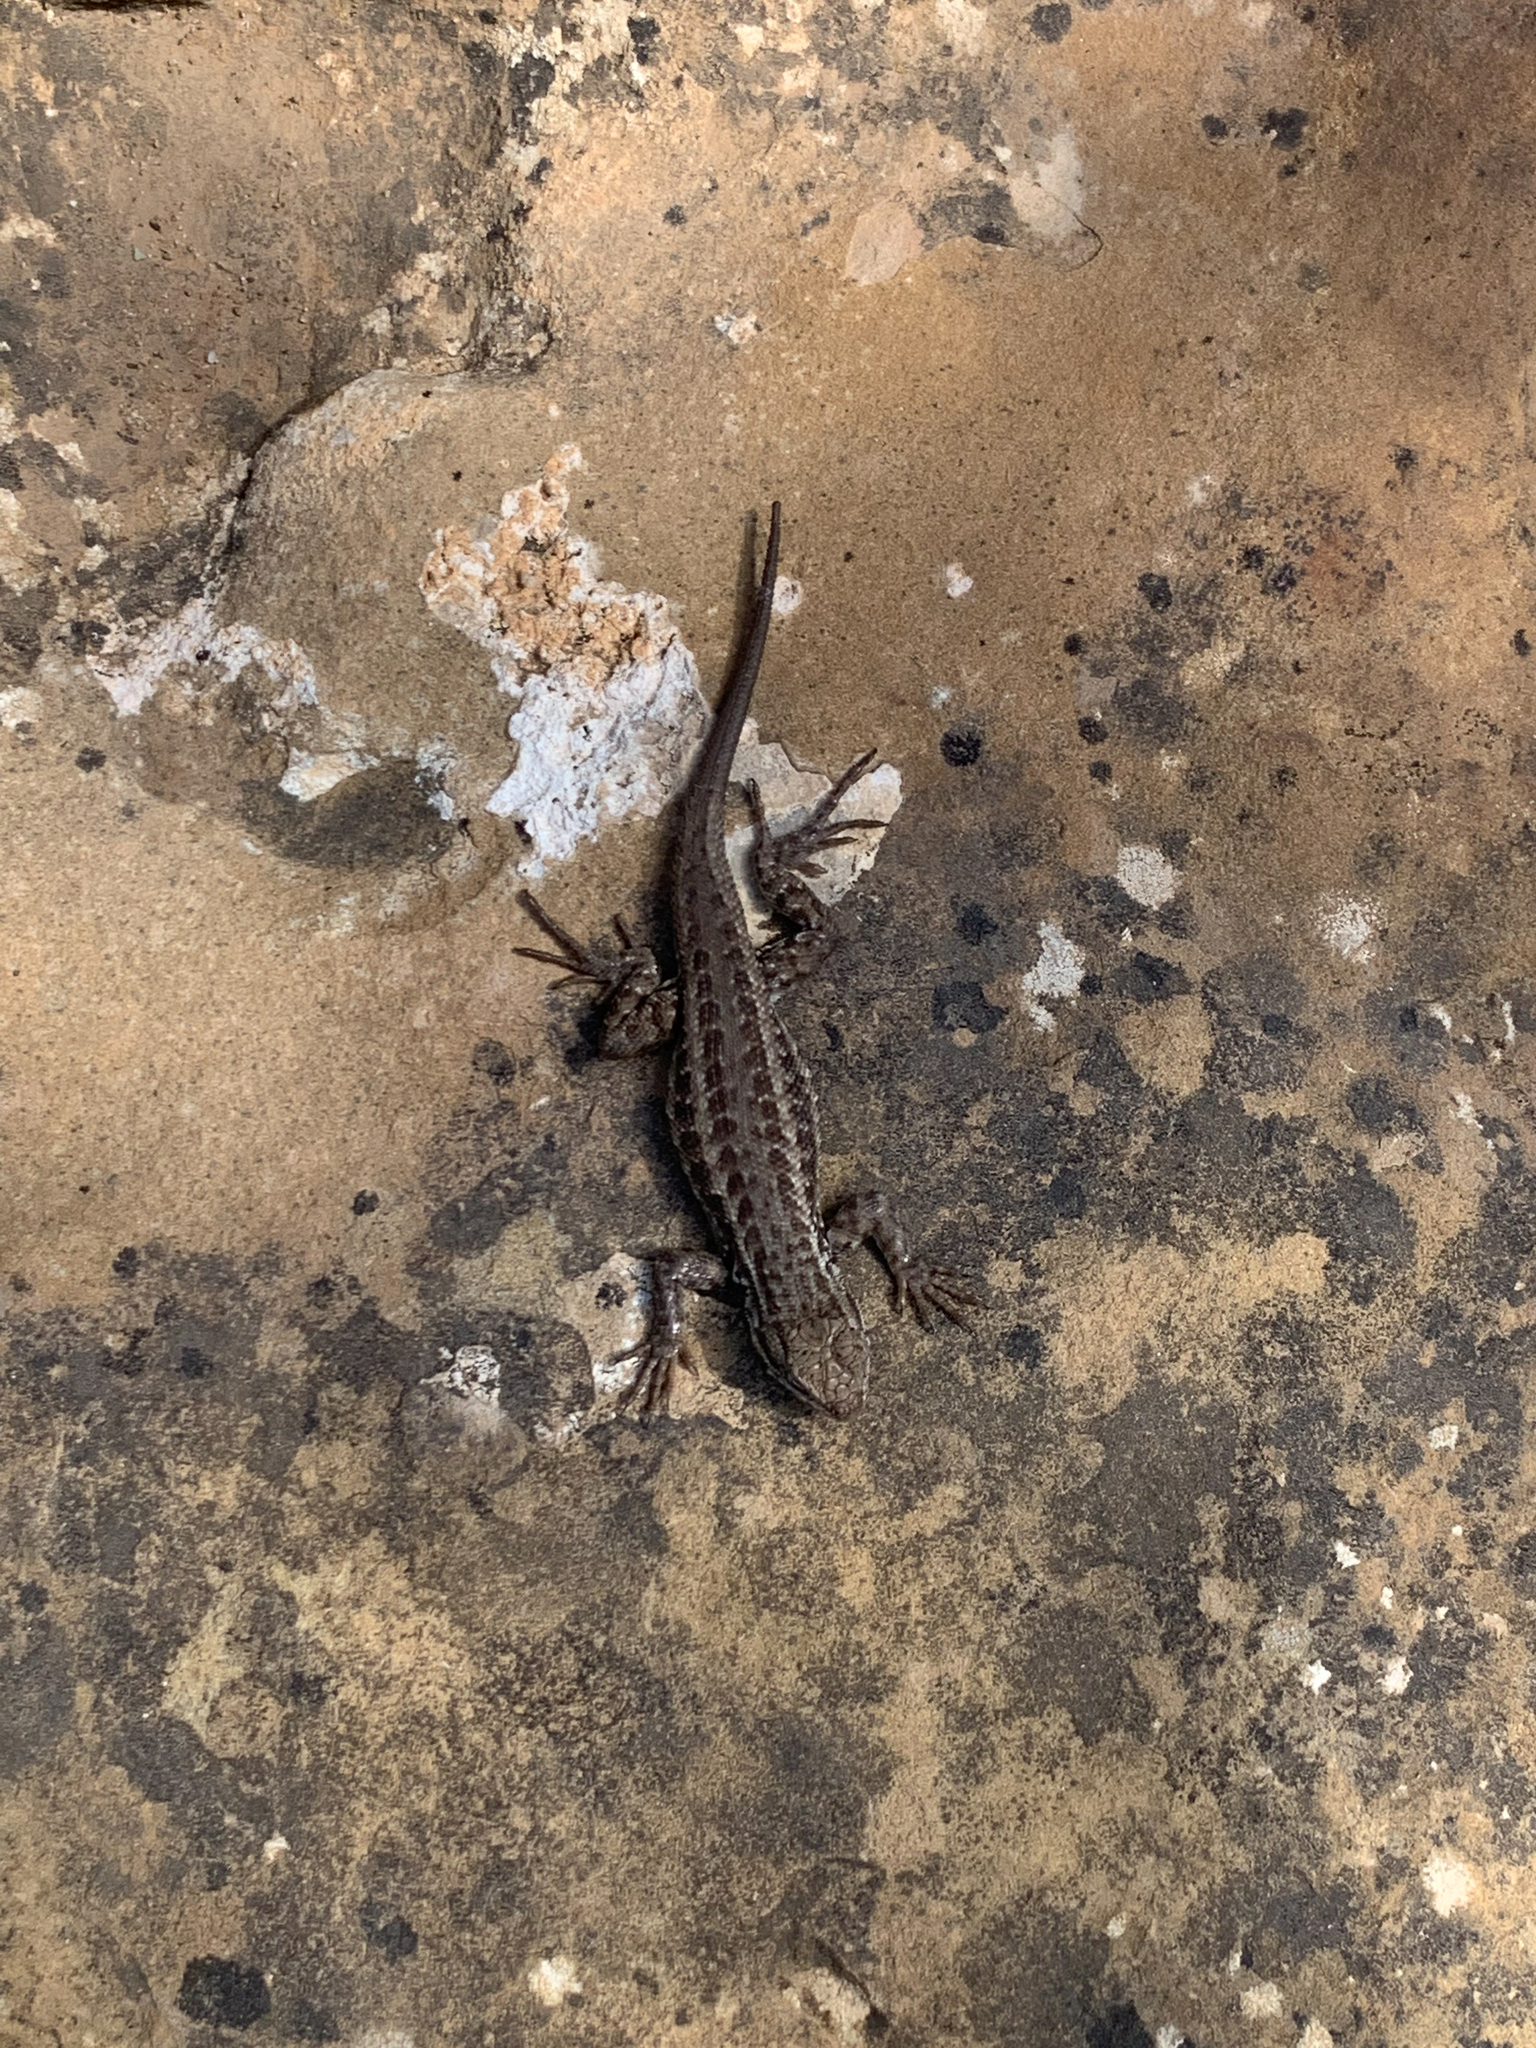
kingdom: Animalia
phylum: Chordata
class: Squamata
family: Phrynosomatidae
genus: Sceloporus
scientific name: Sceloporus graciosus
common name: Sagebrush lizard
